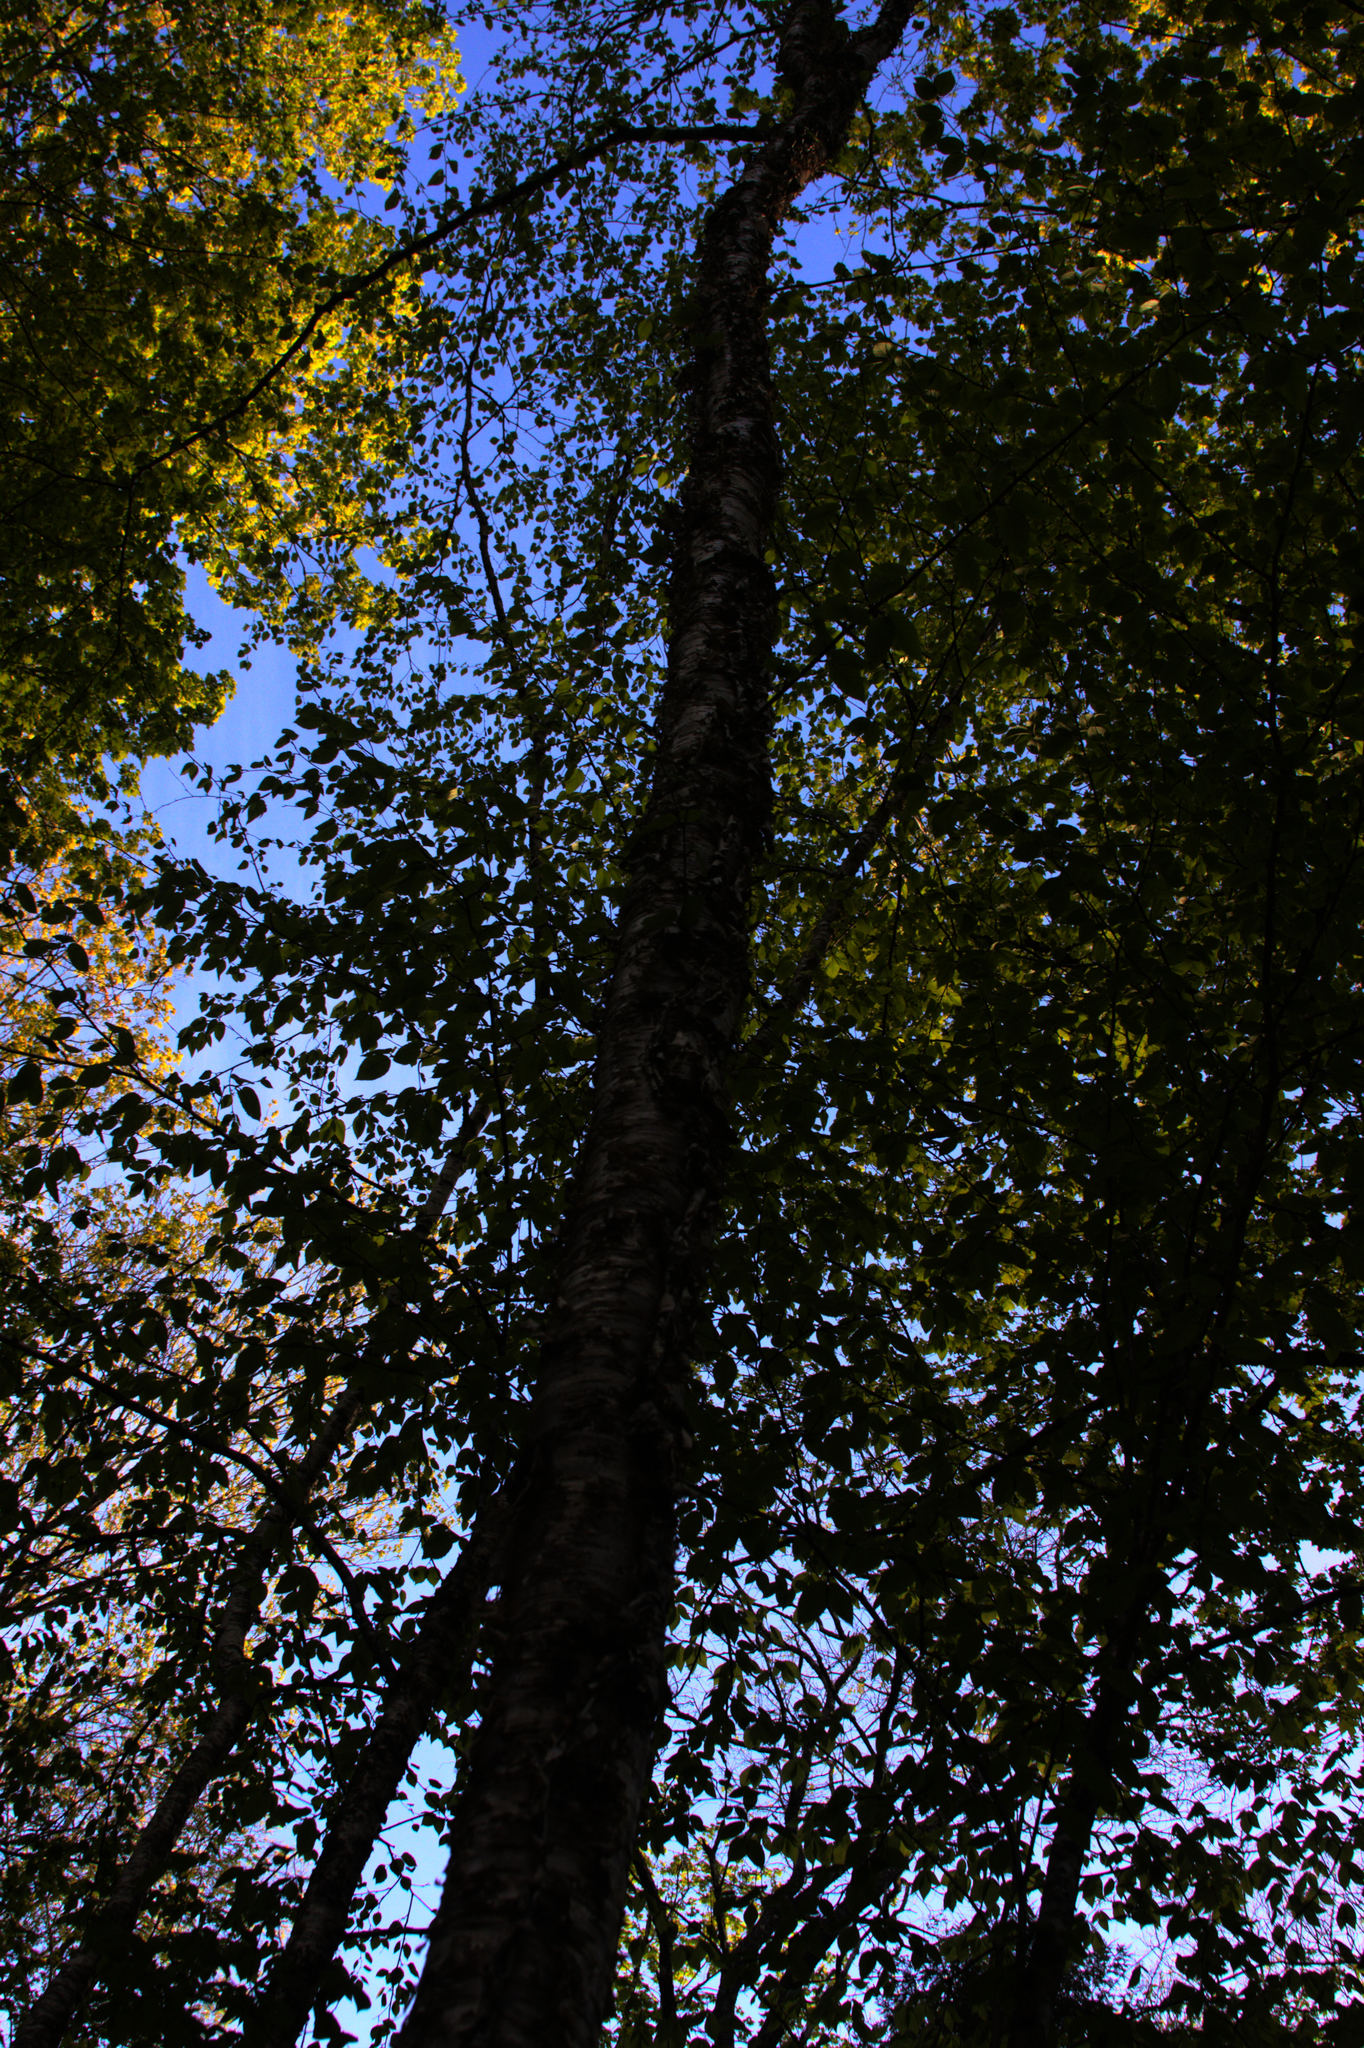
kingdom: Plantae
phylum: Tracheophyta
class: Magnoliopsida
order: Fagales
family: Betulaceae
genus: Betula
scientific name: Betula alleghaniensis
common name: Yellow birch
